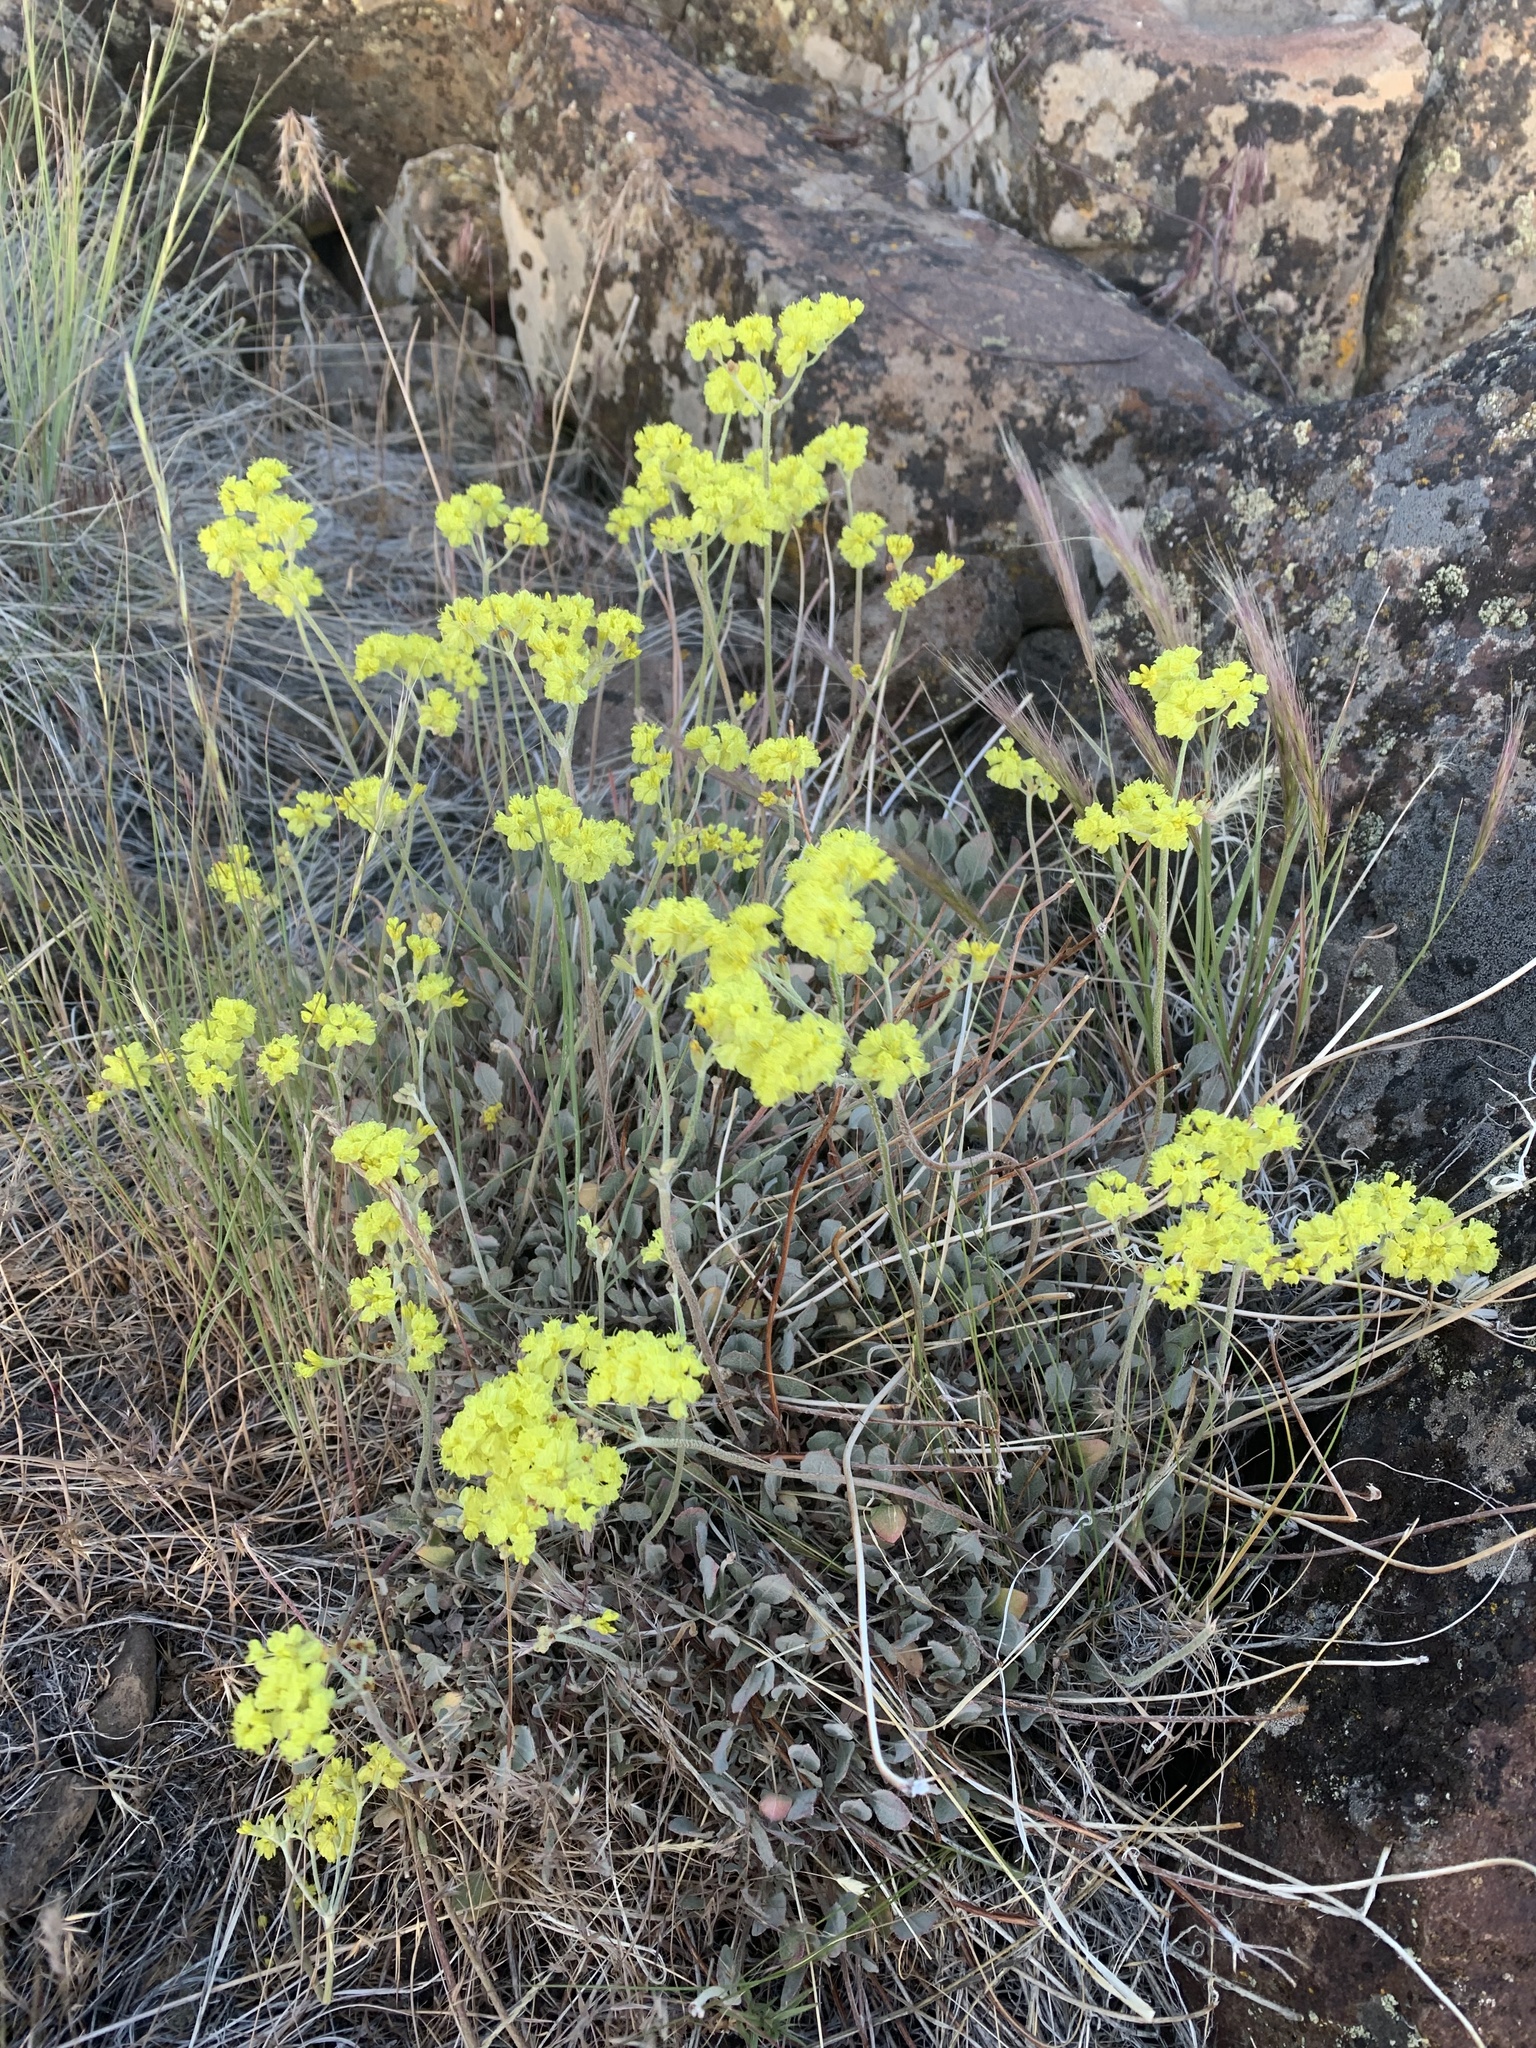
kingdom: Plantae
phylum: Tracheophyta
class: Magnoliopsida
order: Caryophyllales
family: Polygonaceae
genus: Eriogonum
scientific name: Eriogonum strictum
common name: Blue mountain buckwheat
